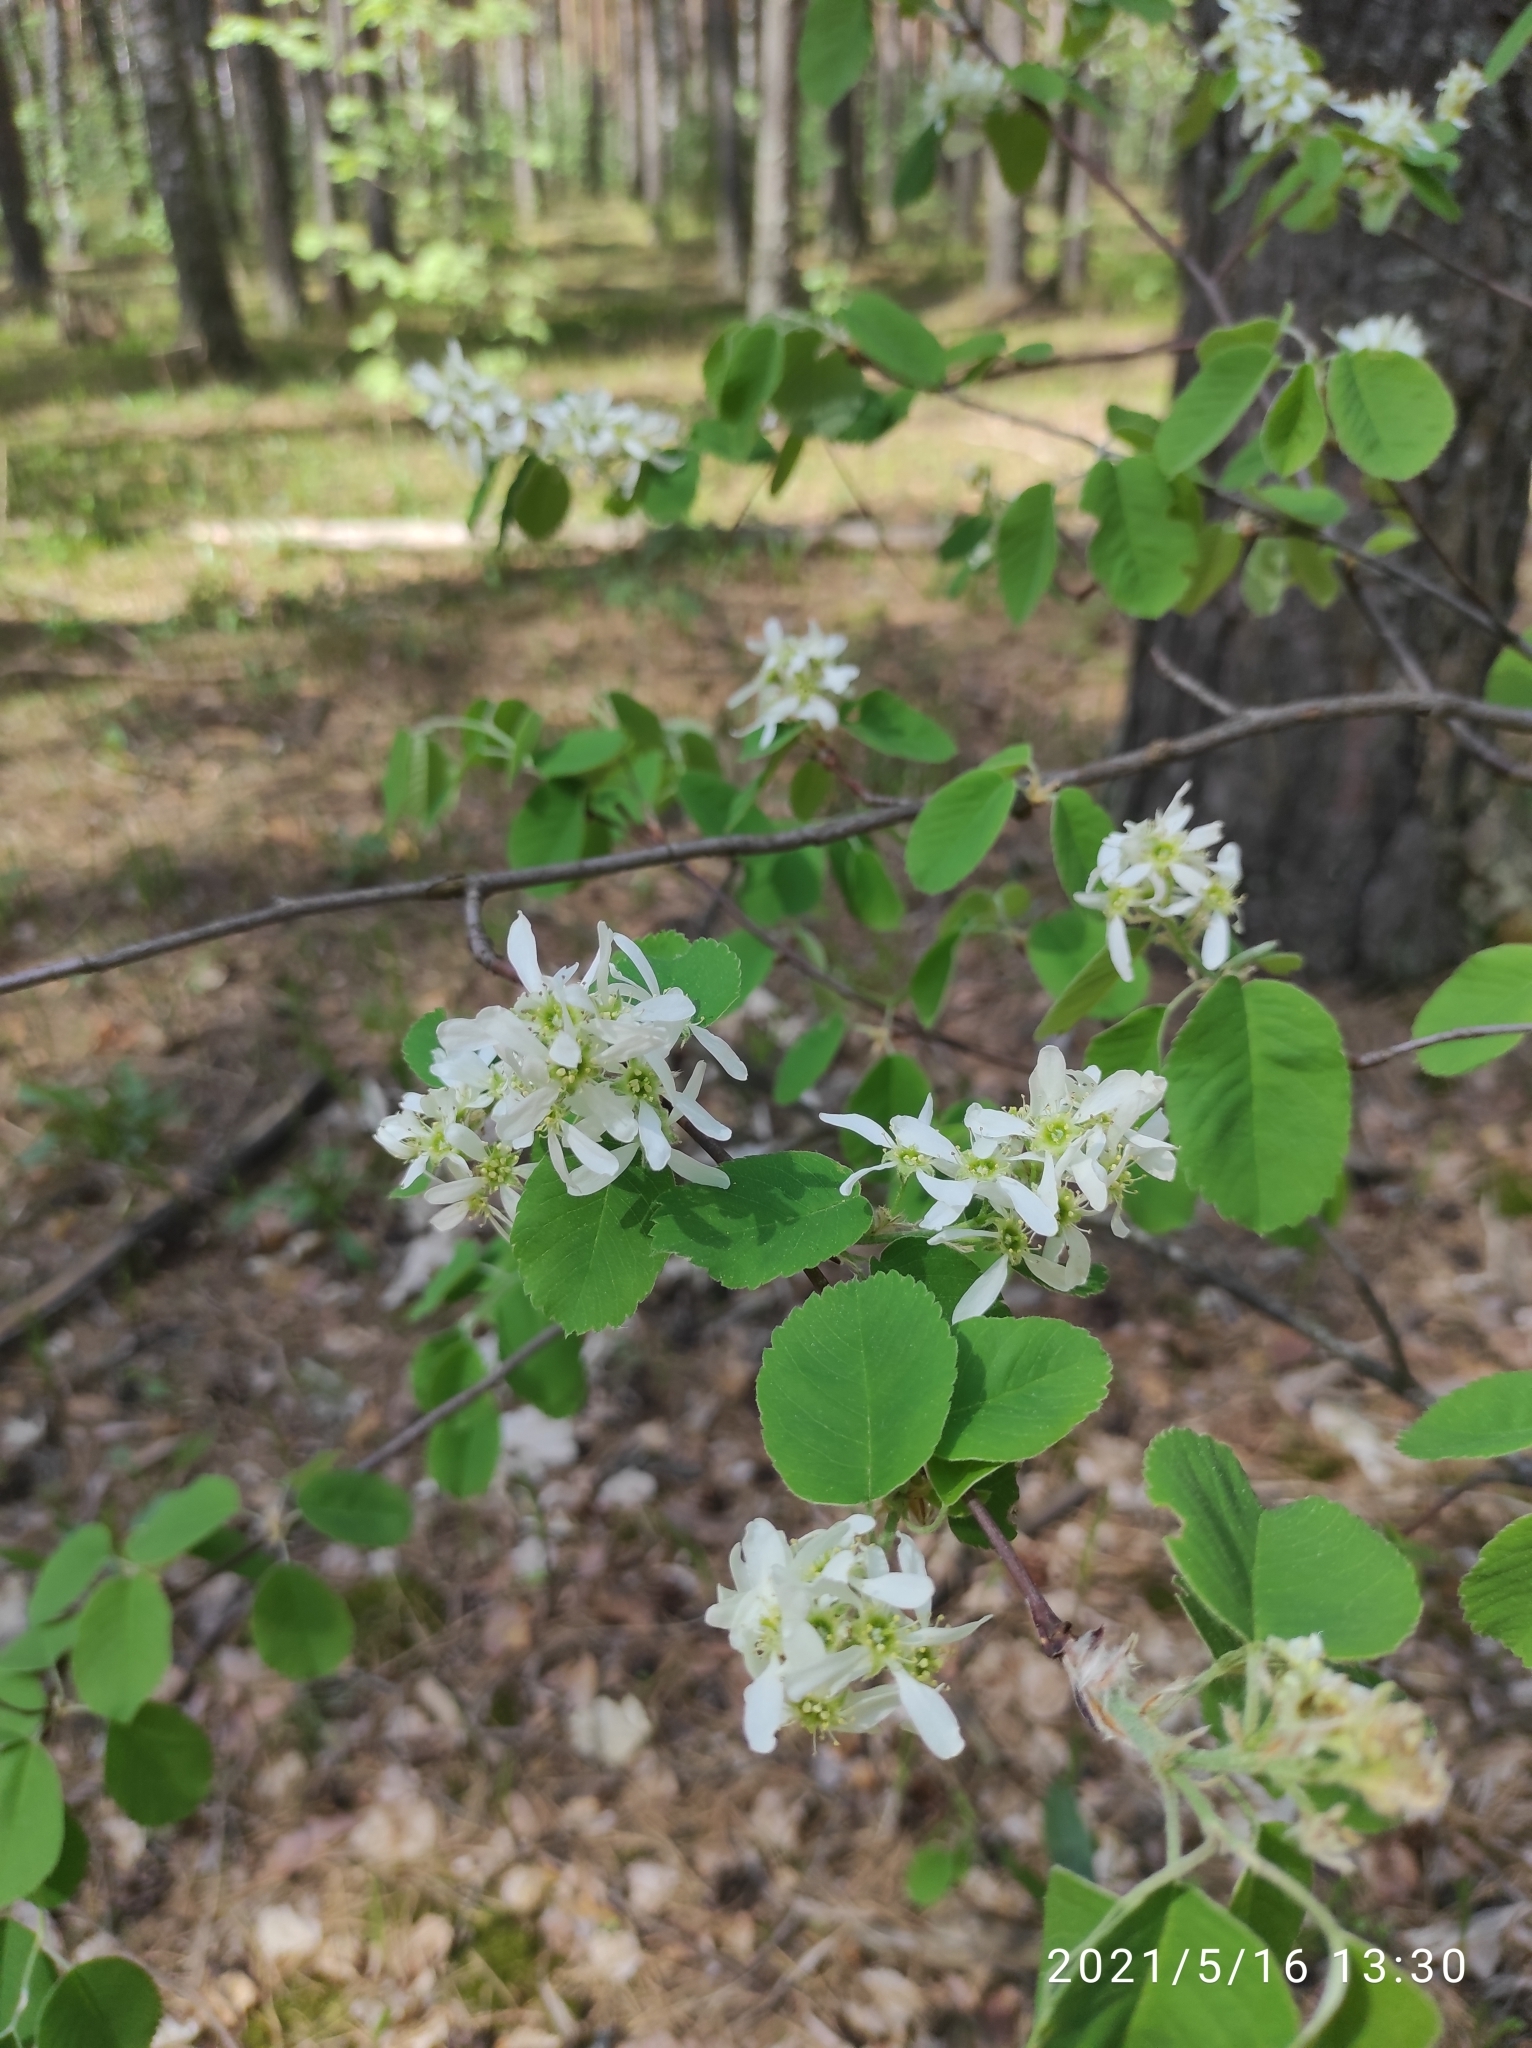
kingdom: Plantae
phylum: Tracheophyta
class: Magnoliopsida
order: Rosales
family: Rosaceae
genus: Amelanchier
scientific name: Amelanchier
